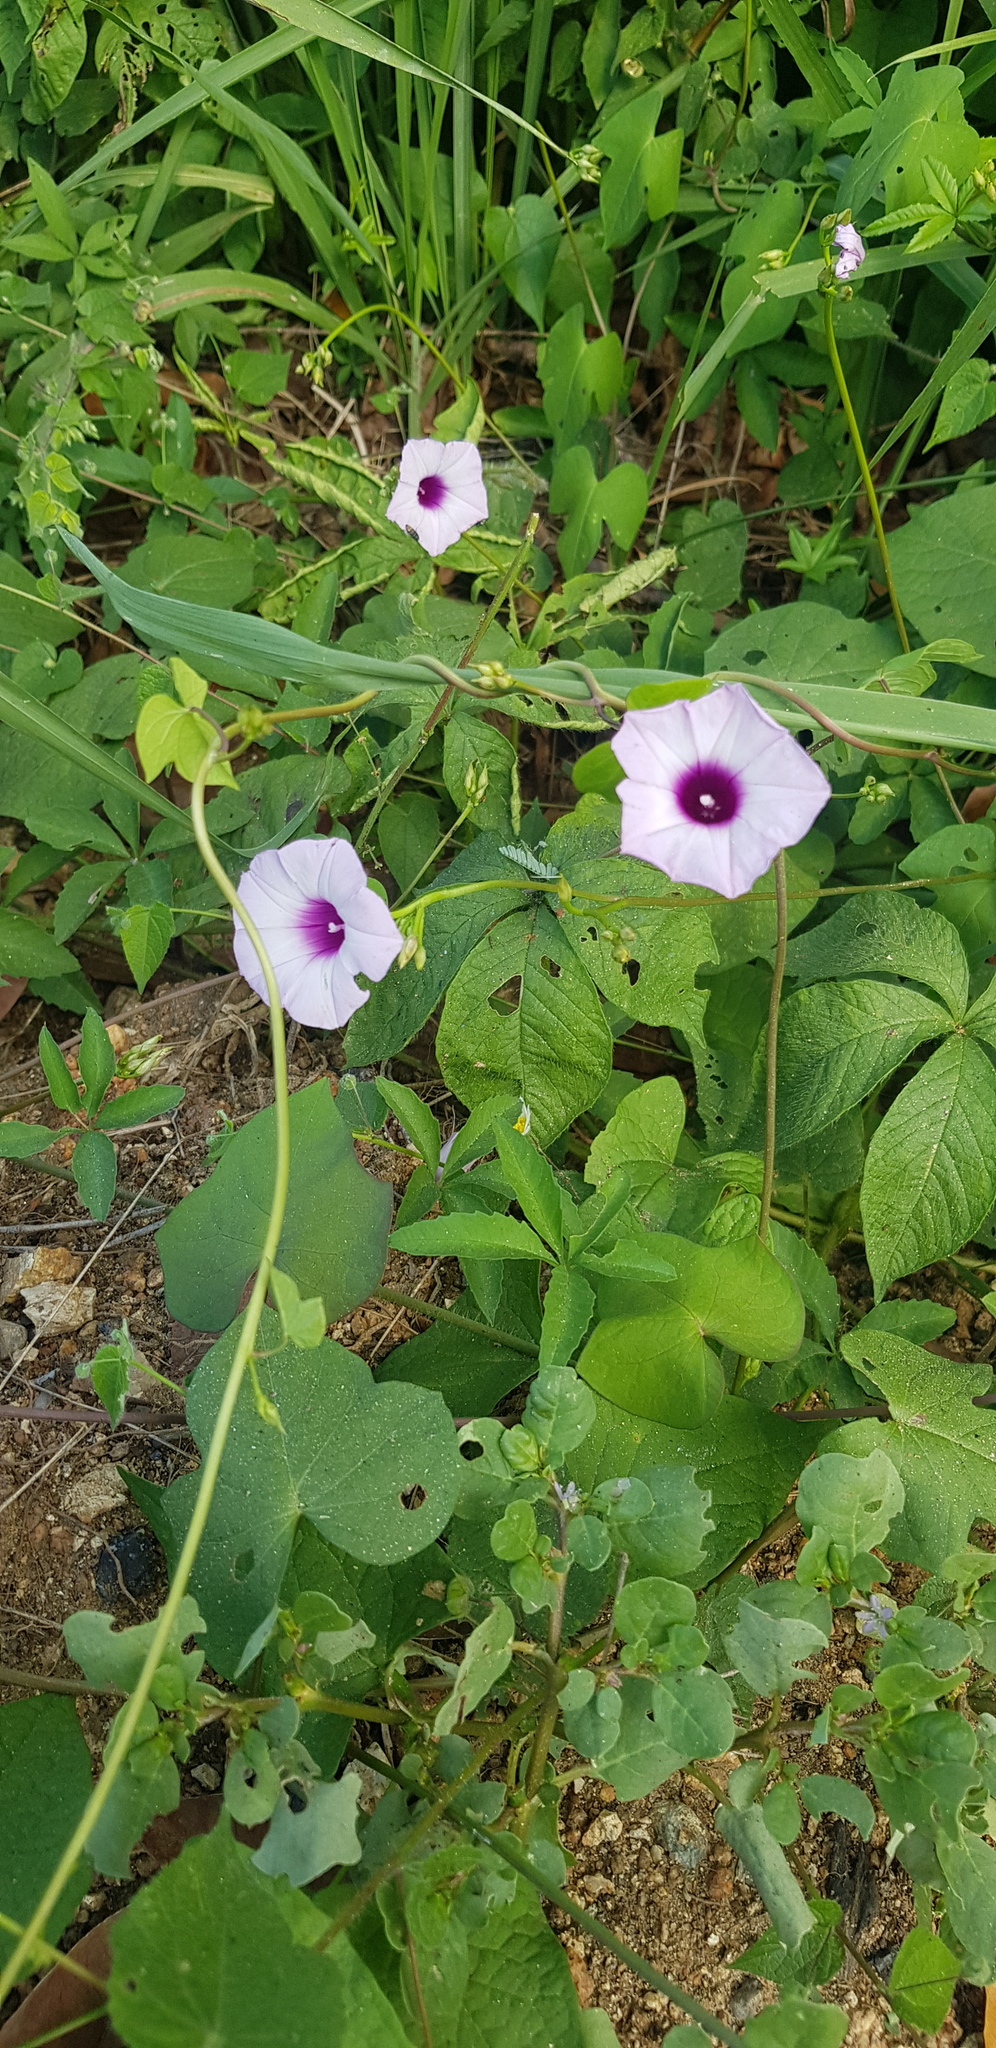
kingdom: Plantae
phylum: Tracheophyta
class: Magnoliopsida
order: Solanales
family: Convolvulaceae
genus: Ipomoea
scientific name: Ipomoea trifida
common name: Cotton morningglory
